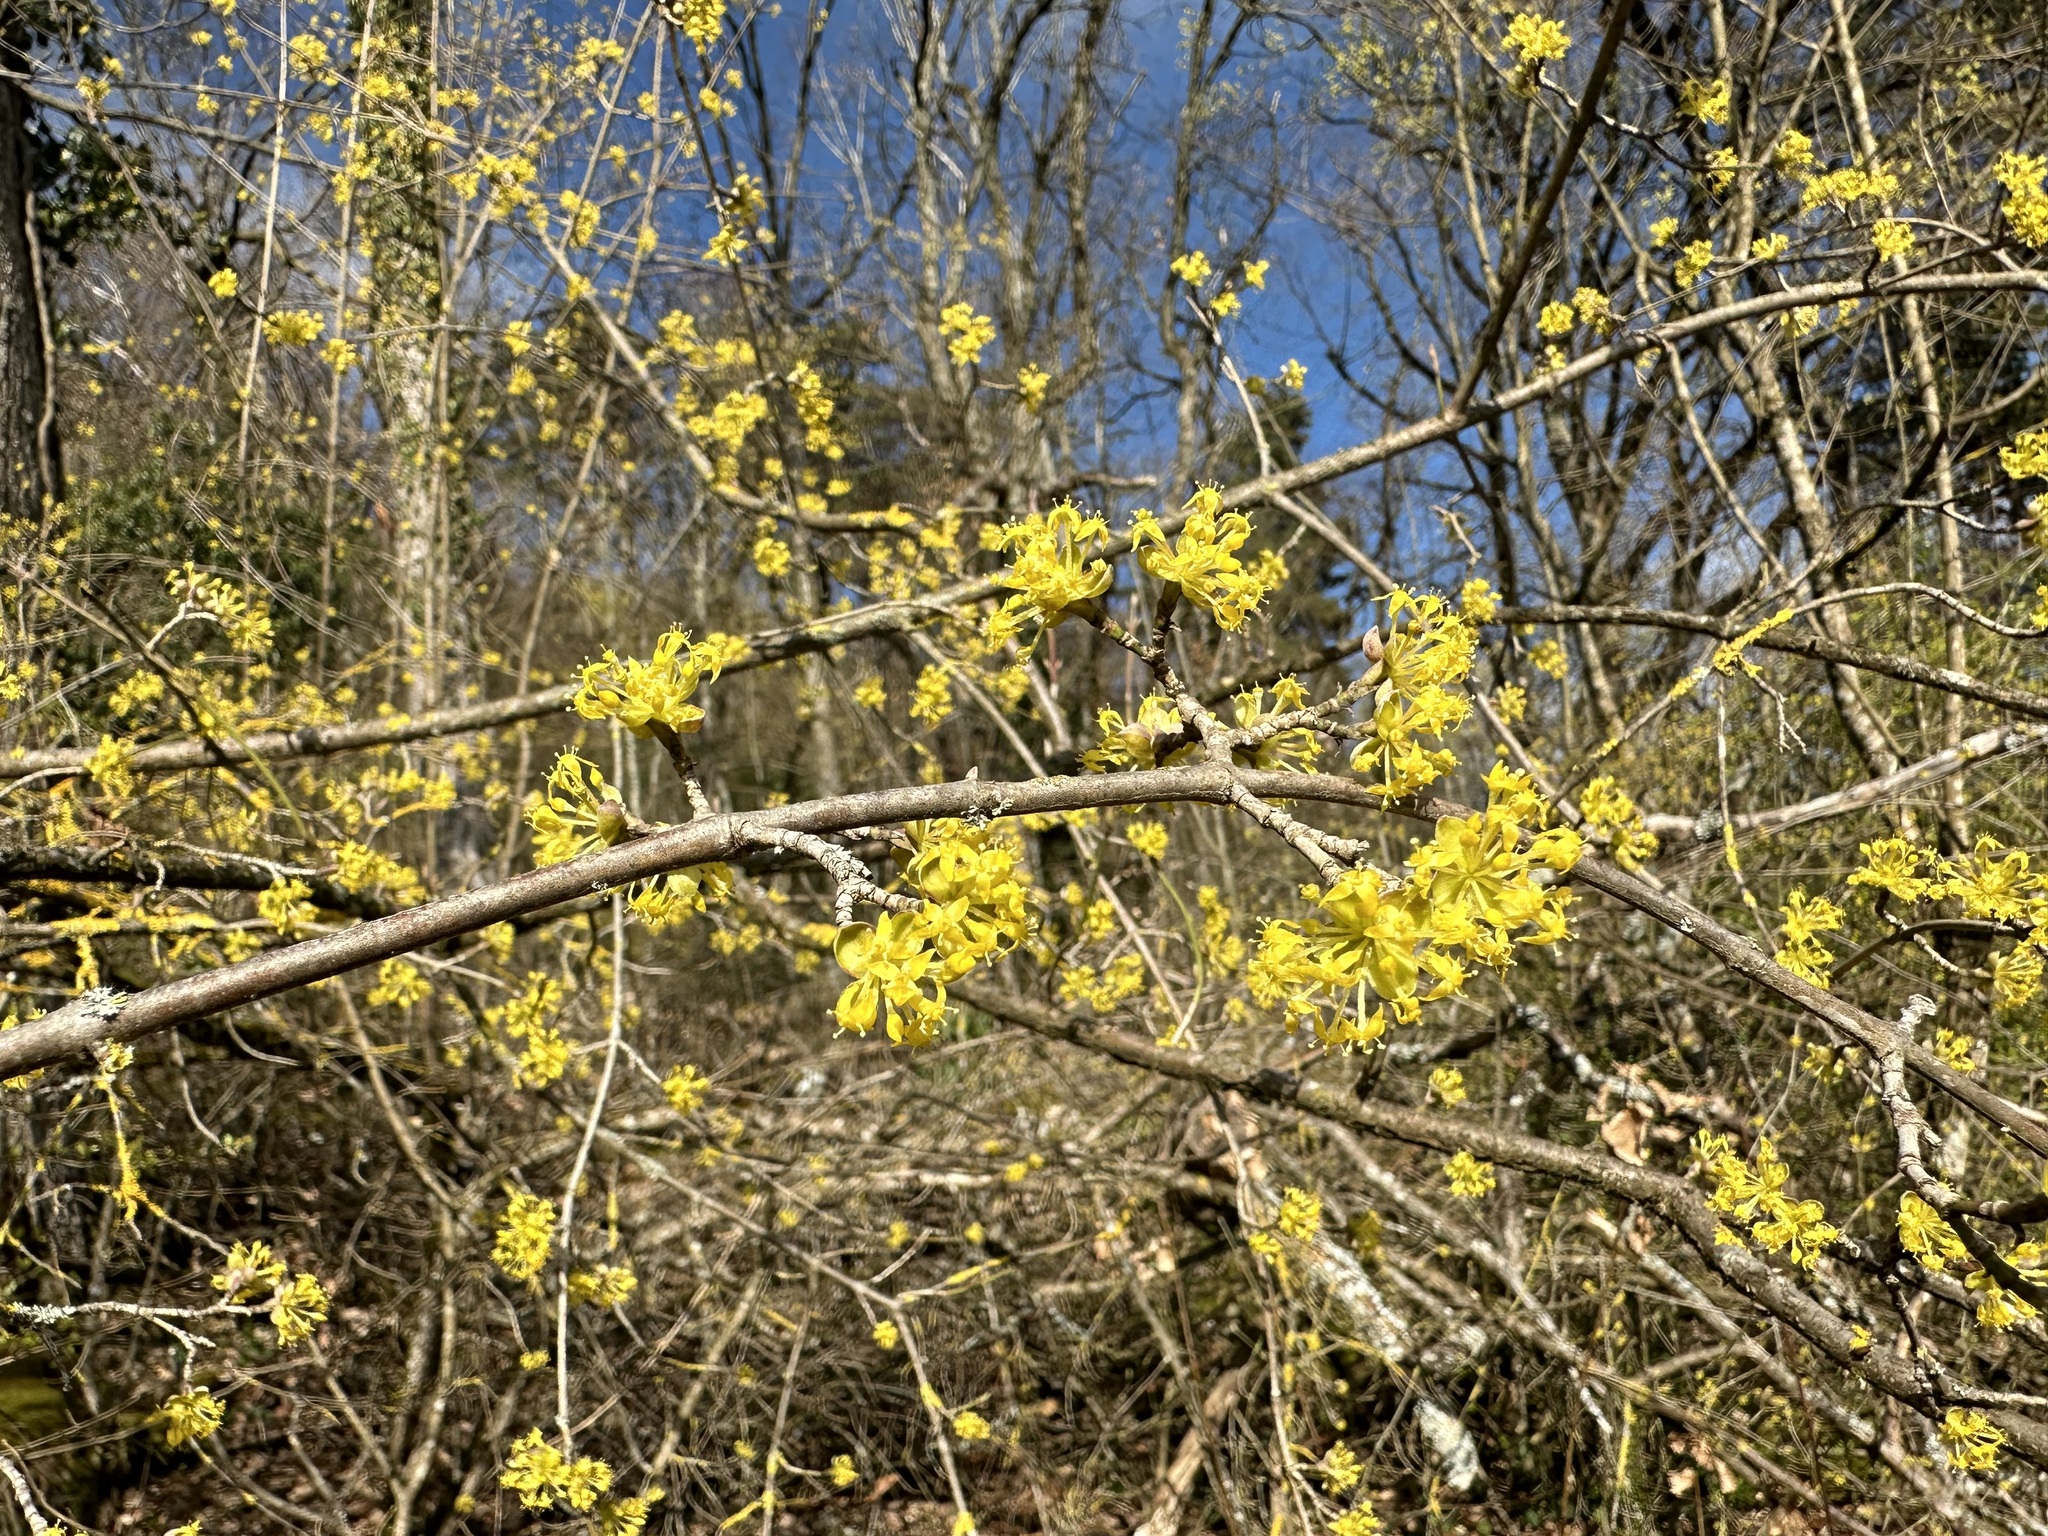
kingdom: Plantae
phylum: Tracheophyta
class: Magnoliopsida
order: Cornales
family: Cornaceae
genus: Cornus
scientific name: Cornus mas
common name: Cornelian-cherry
